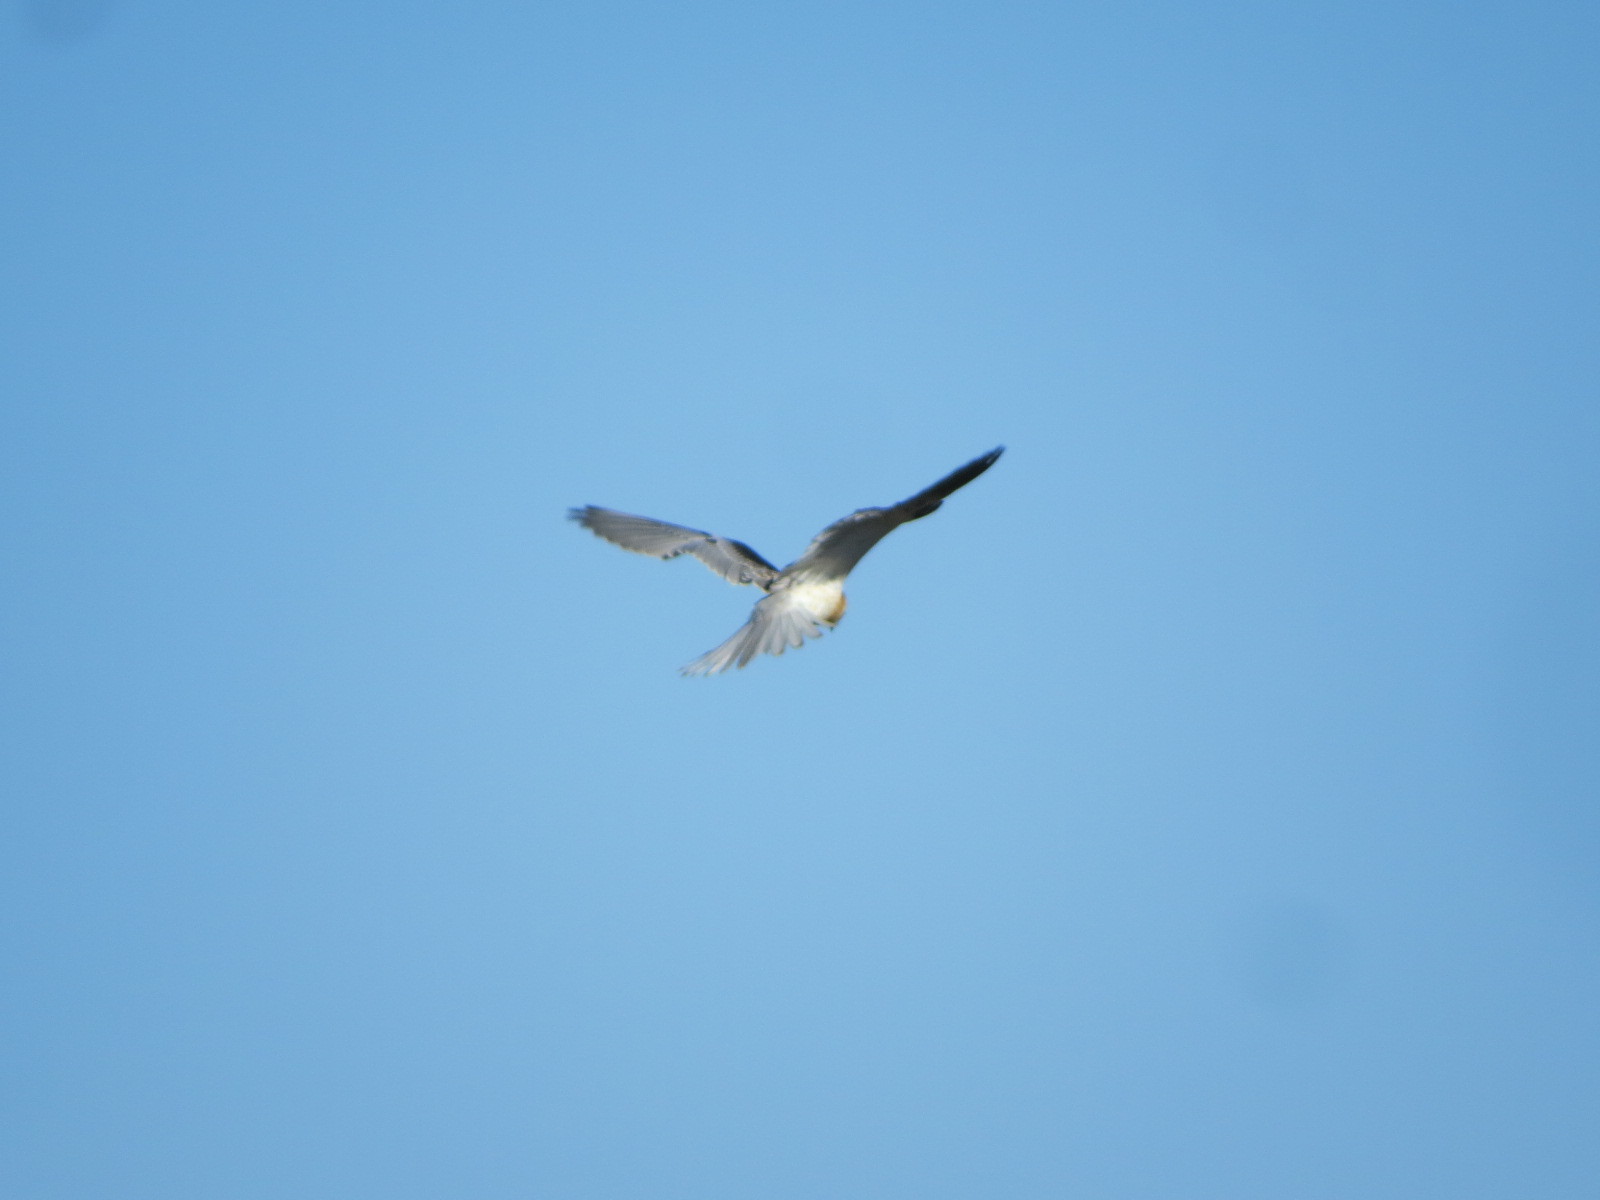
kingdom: Animalia
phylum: Chordata
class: Aves
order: Accipitriformes
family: Accipitridae
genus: Elanus
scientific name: Elanus leucurus
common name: White-tailed kite
